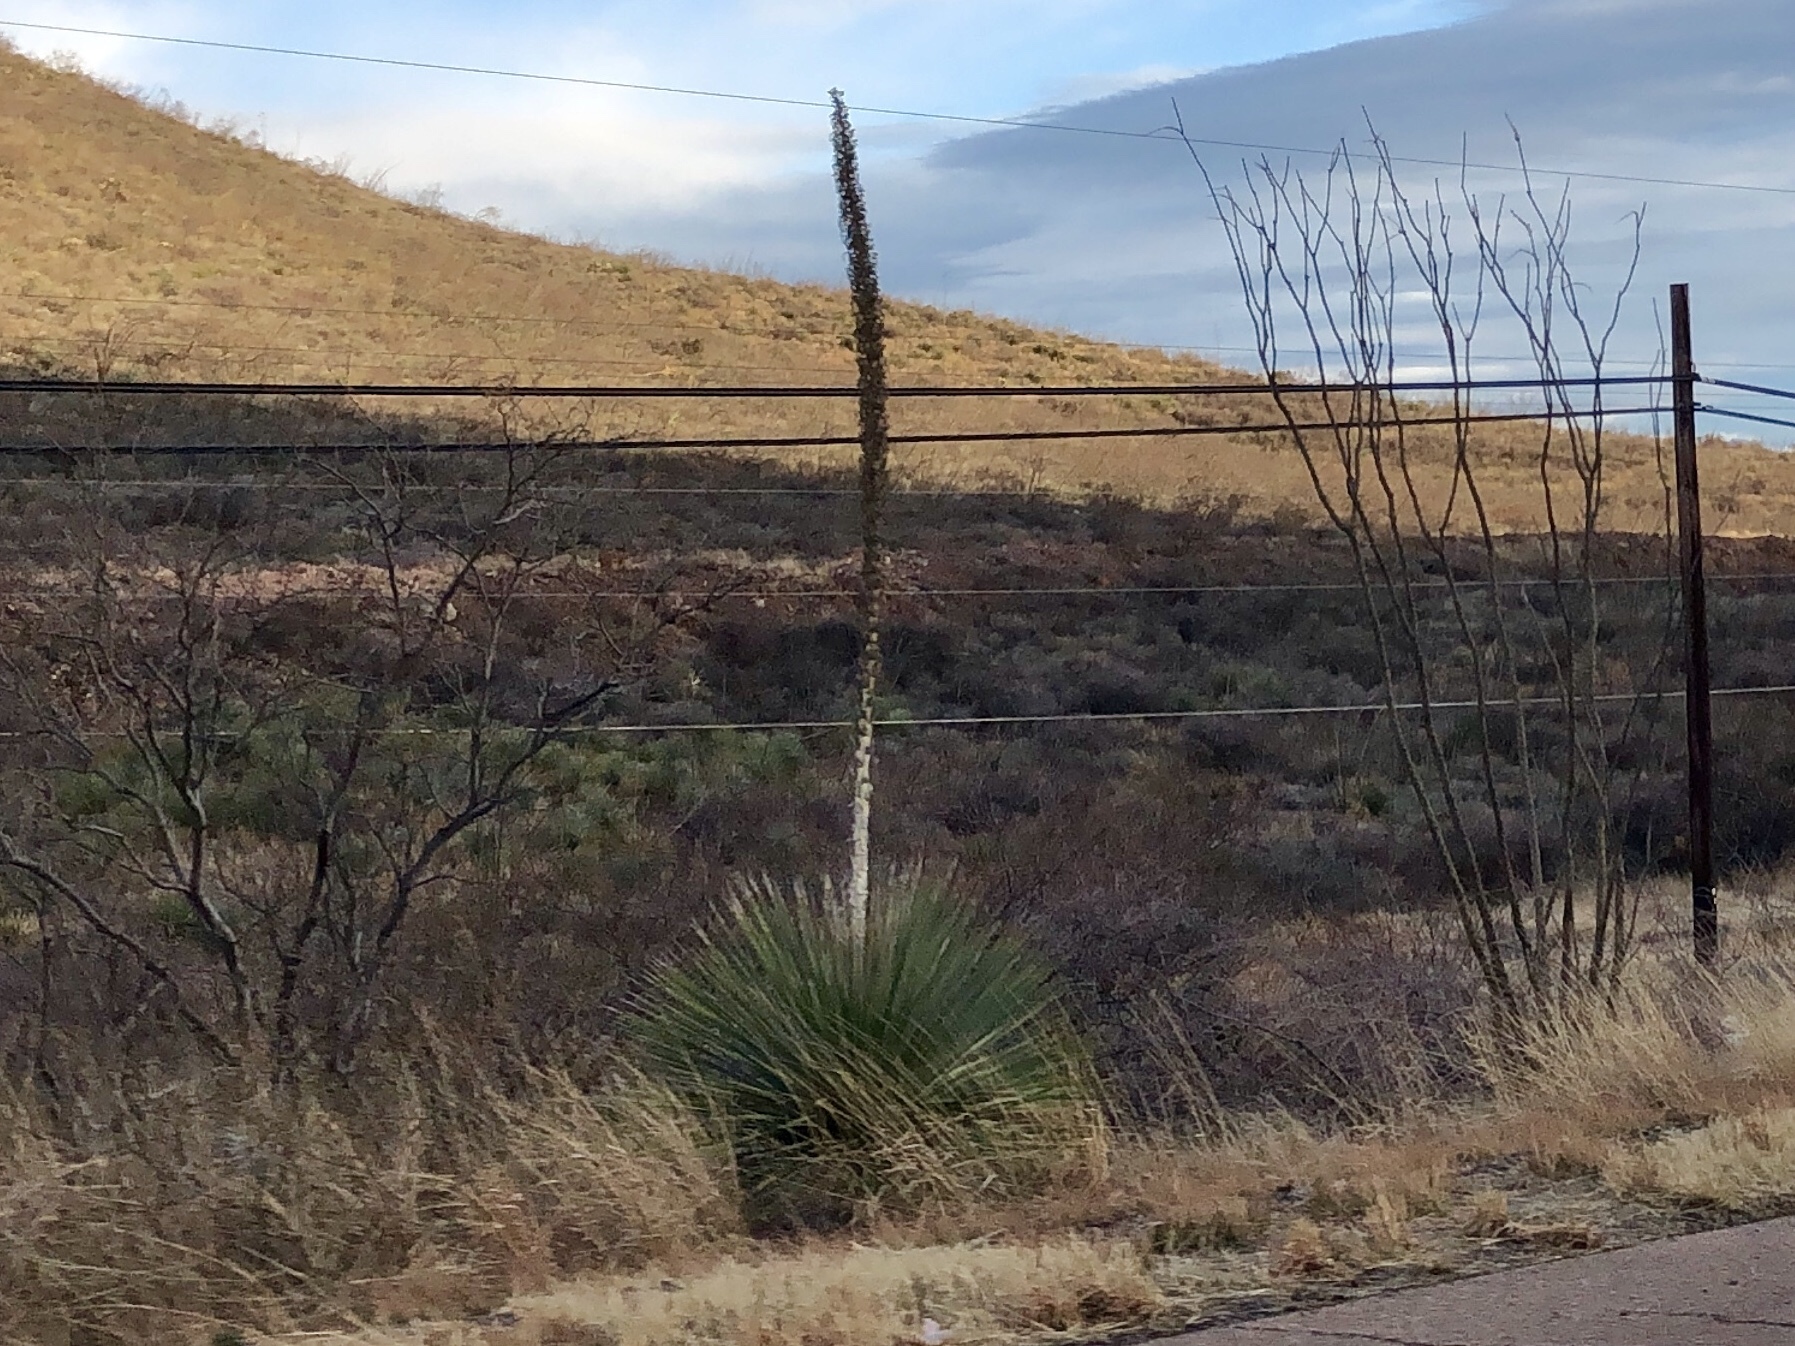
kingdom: Plantae
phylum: Tracheophyta
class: Liliopsida
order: Asparagales
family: Asparagaceae
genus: Dasylirion
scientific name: Dasylirion wheeleri
